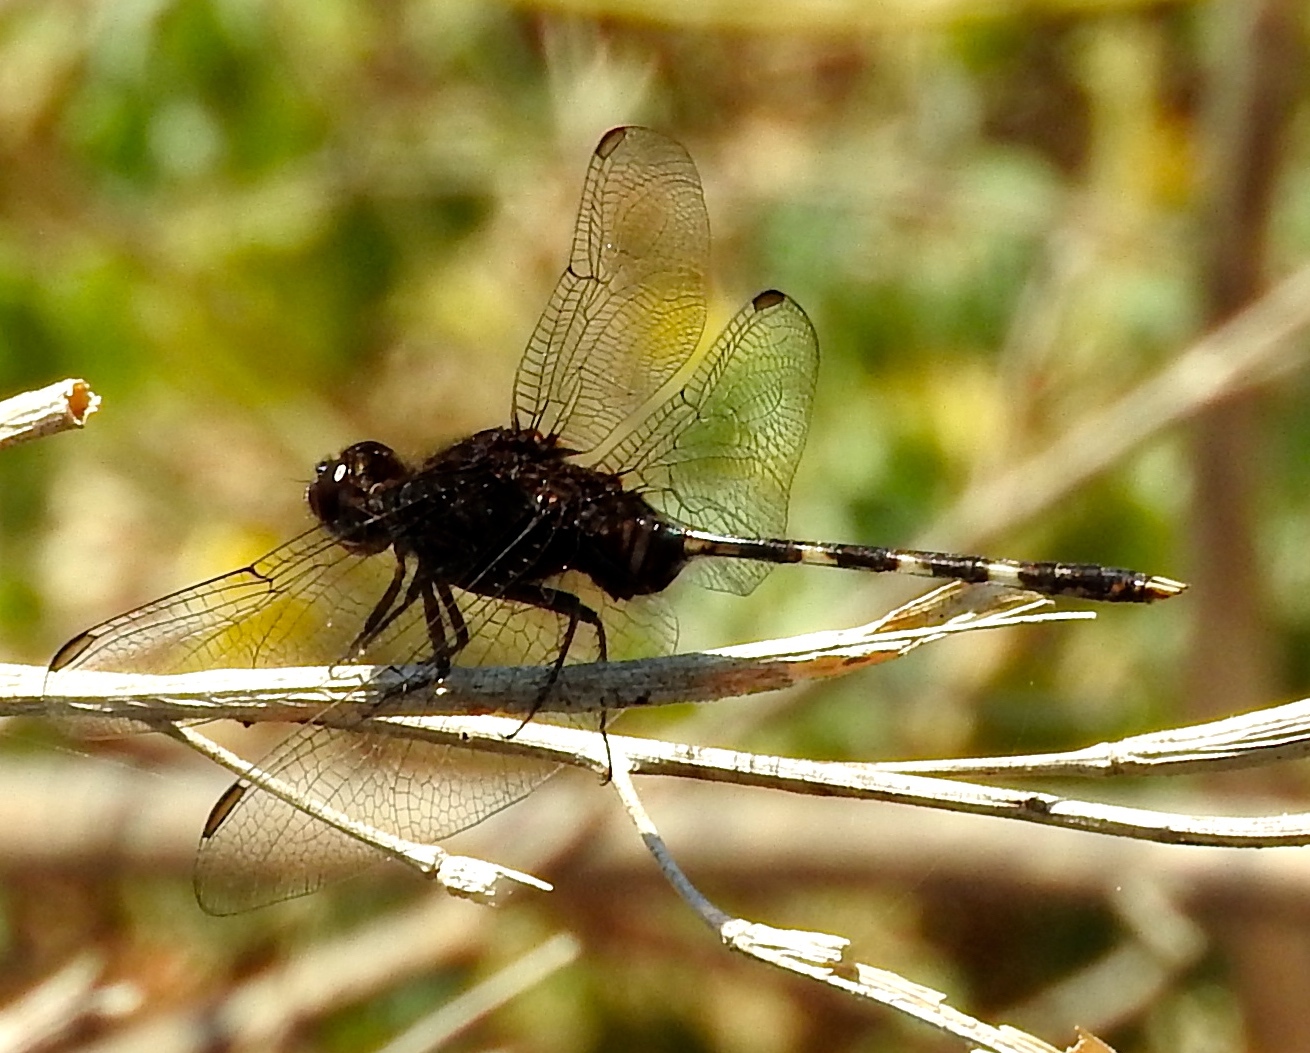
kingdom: Animalia
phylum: Arthropoda
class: Insecta
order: Odonata
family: Libellulidae
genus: Erythemis
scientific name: Erythemis plebeja
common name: Pin-tailed pondhawk
